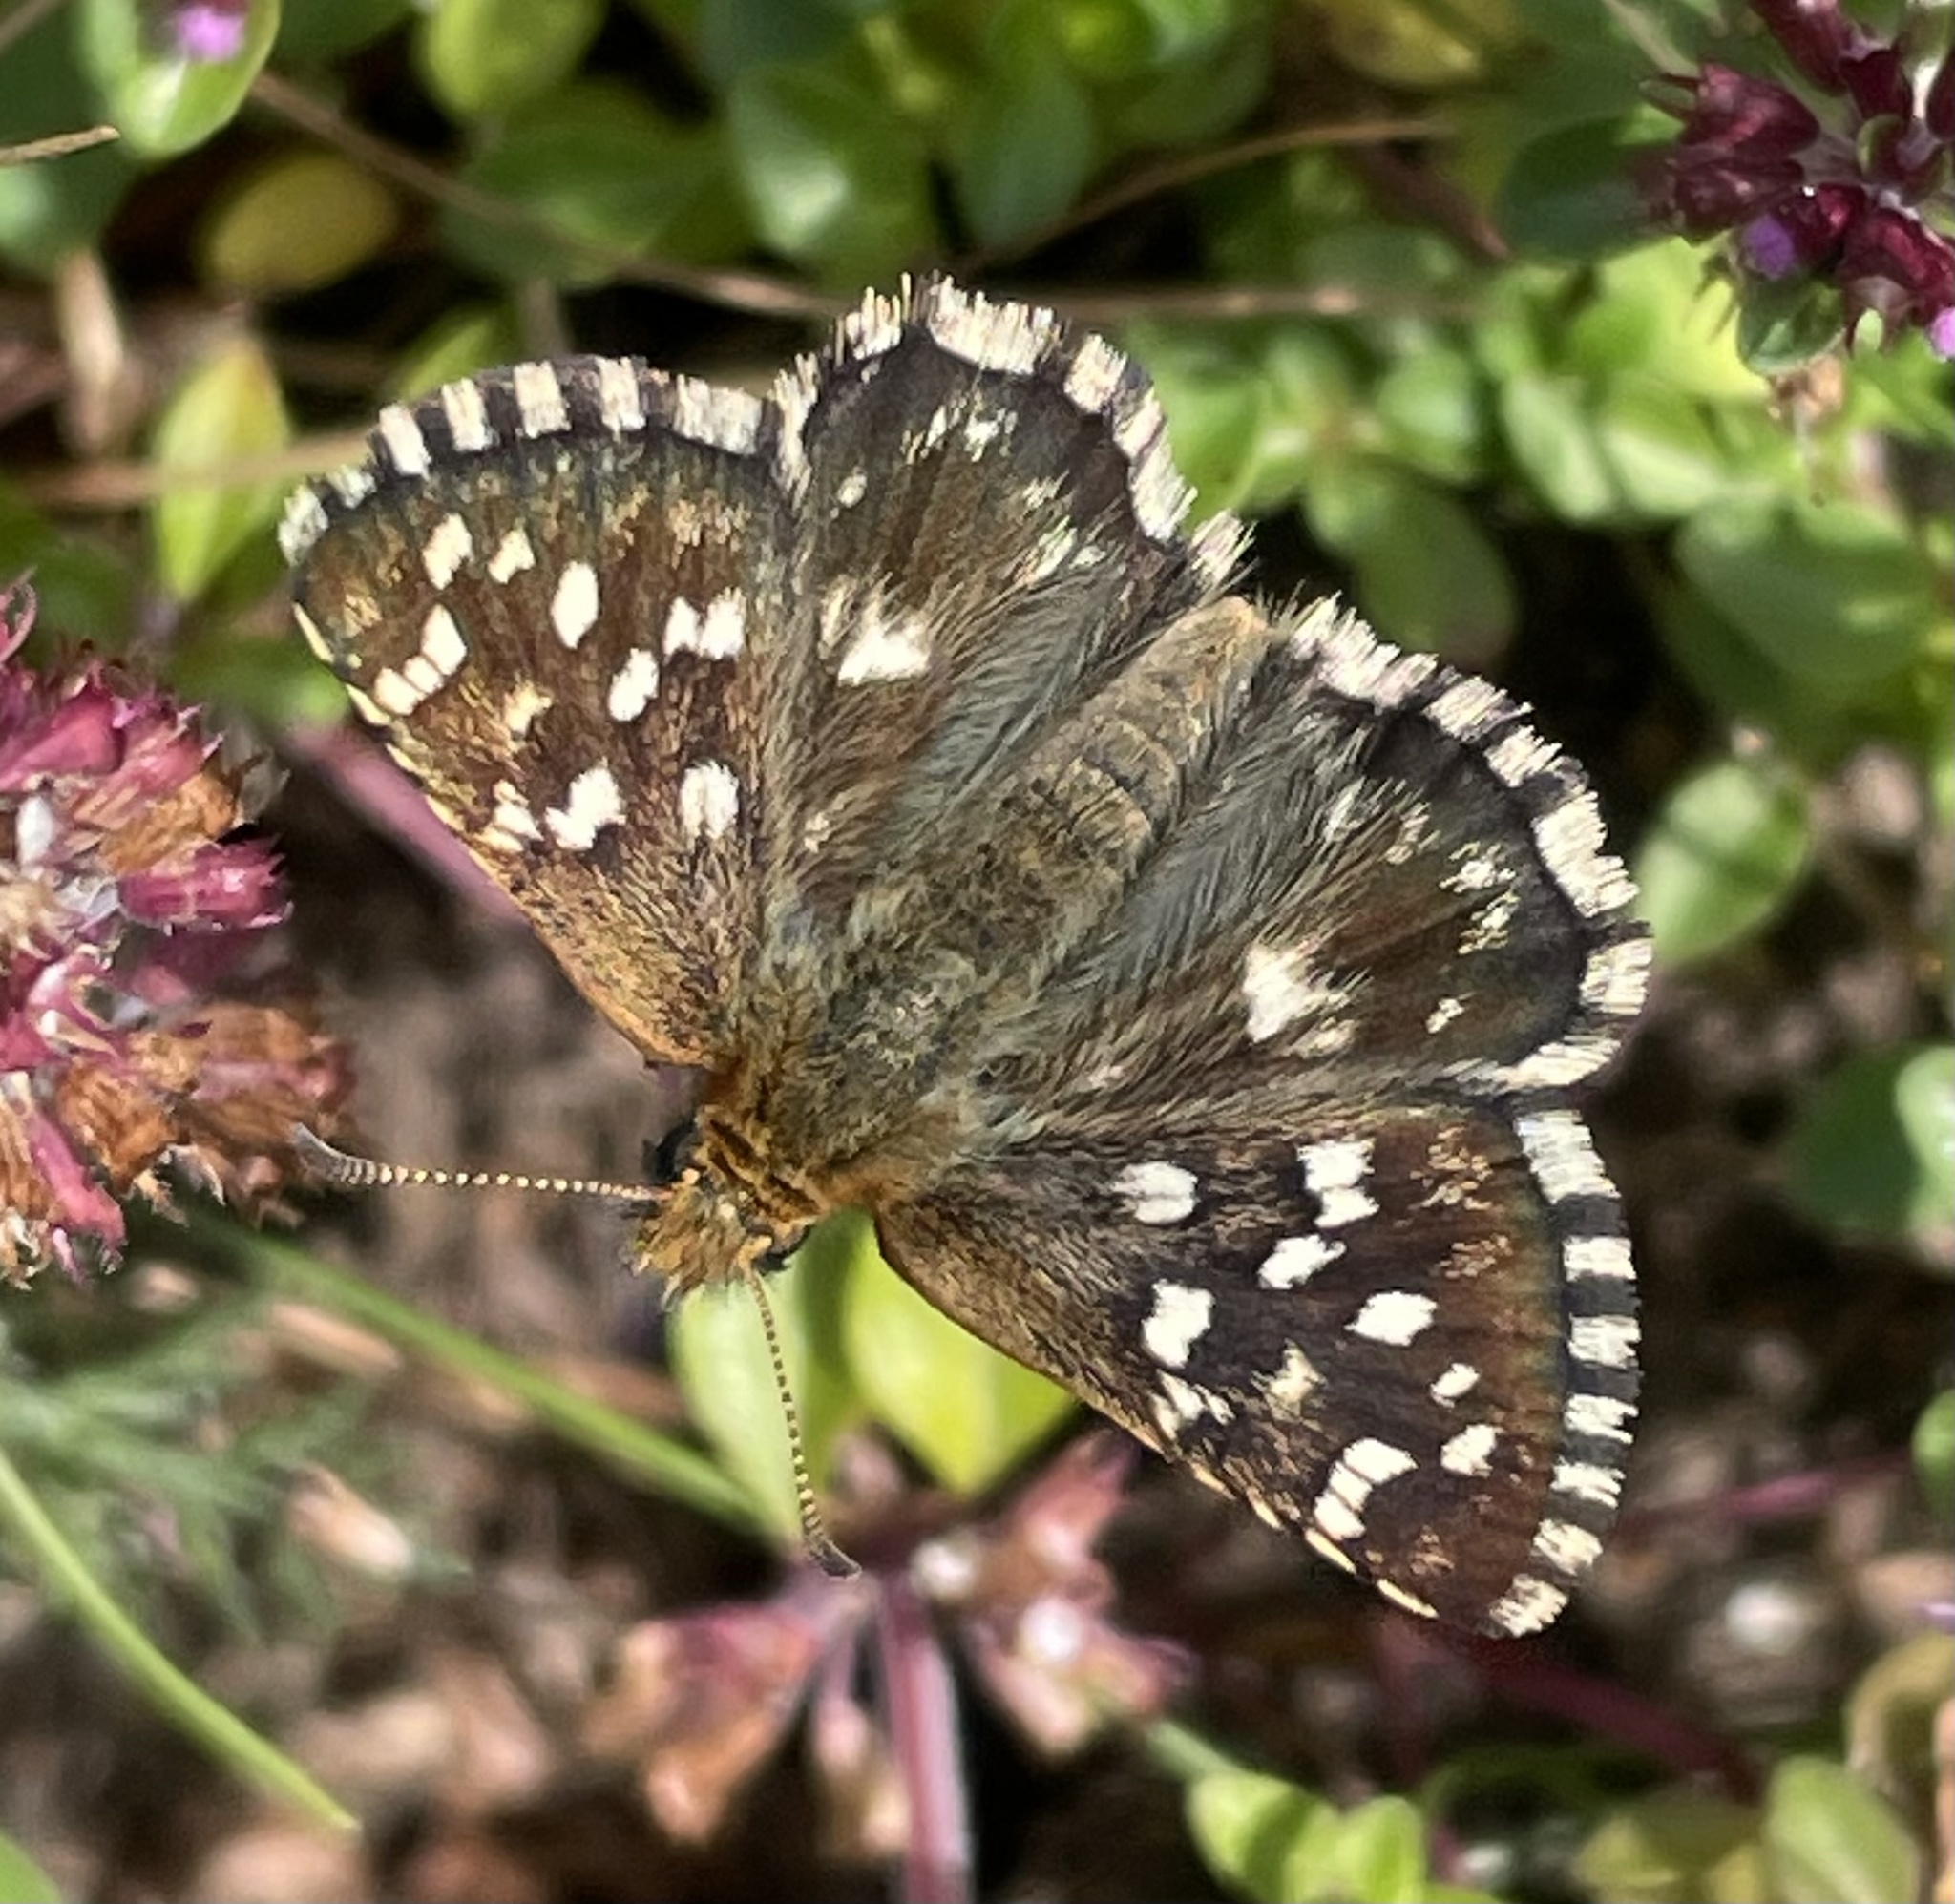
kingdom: Animalia
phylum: Arthropoda
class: Insecta
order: Lepidoptera
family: Hesperiidae
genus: Pyrgus
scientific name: Pyrgus malvoides
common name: Southern grizzled skipper
